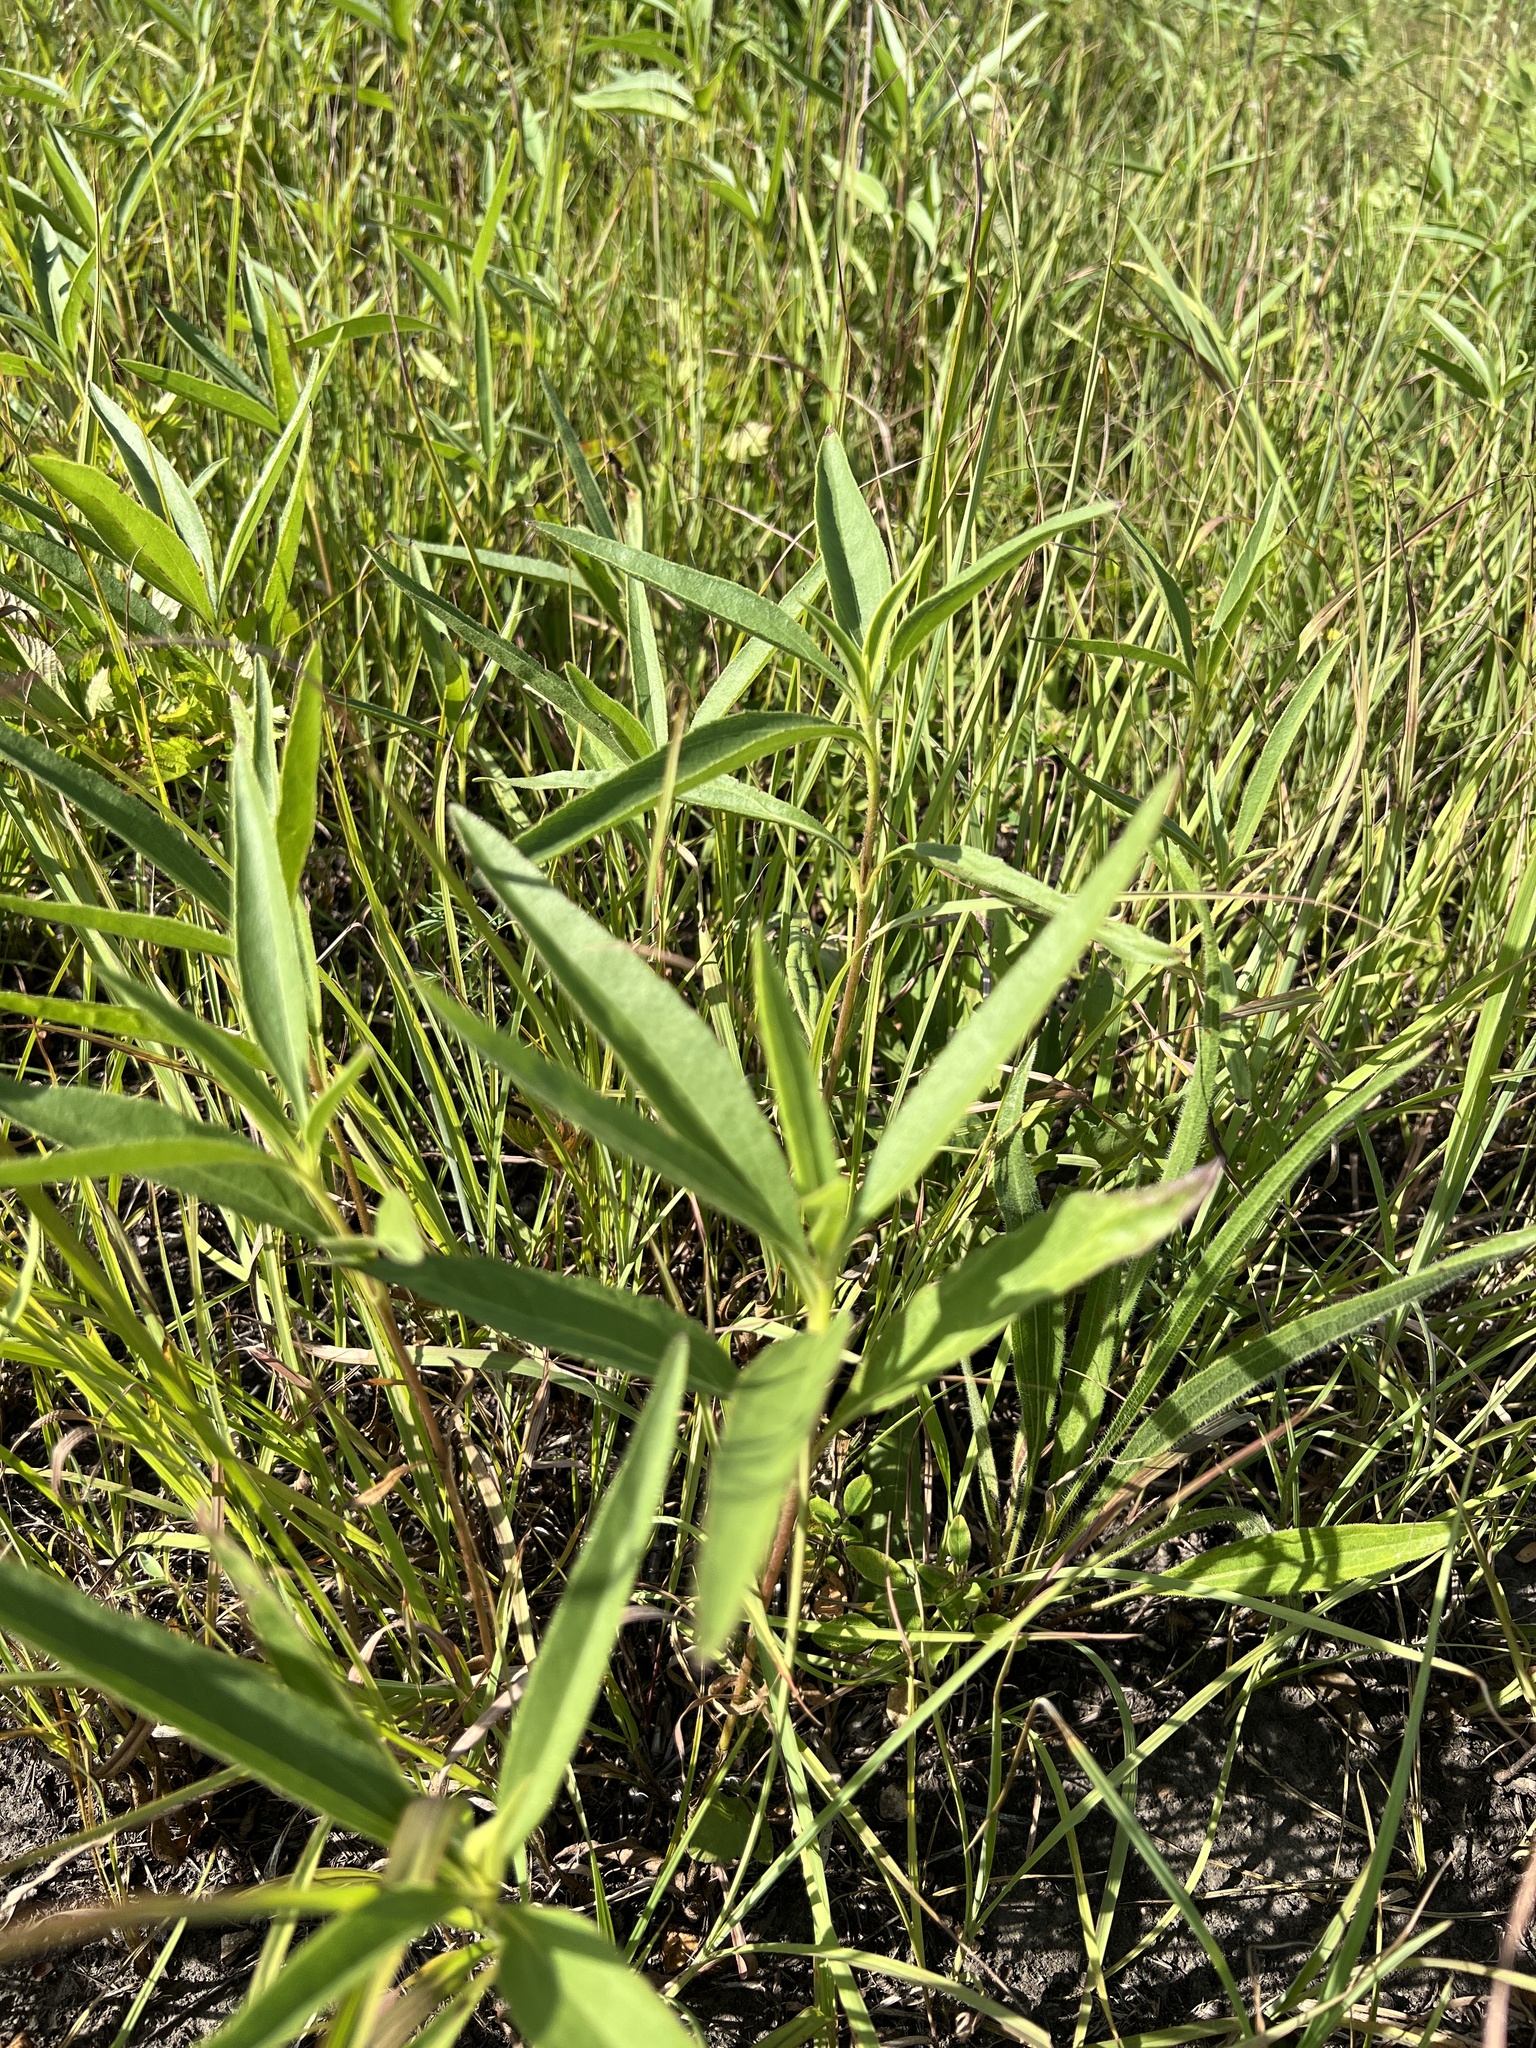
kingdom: Plantae
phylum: Tracheophyta
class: Magnoliopsida
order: Asterales
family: Asteraceae
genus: Helianthus
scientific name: Helianthus pauciflorus
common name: Stiff sunflower
